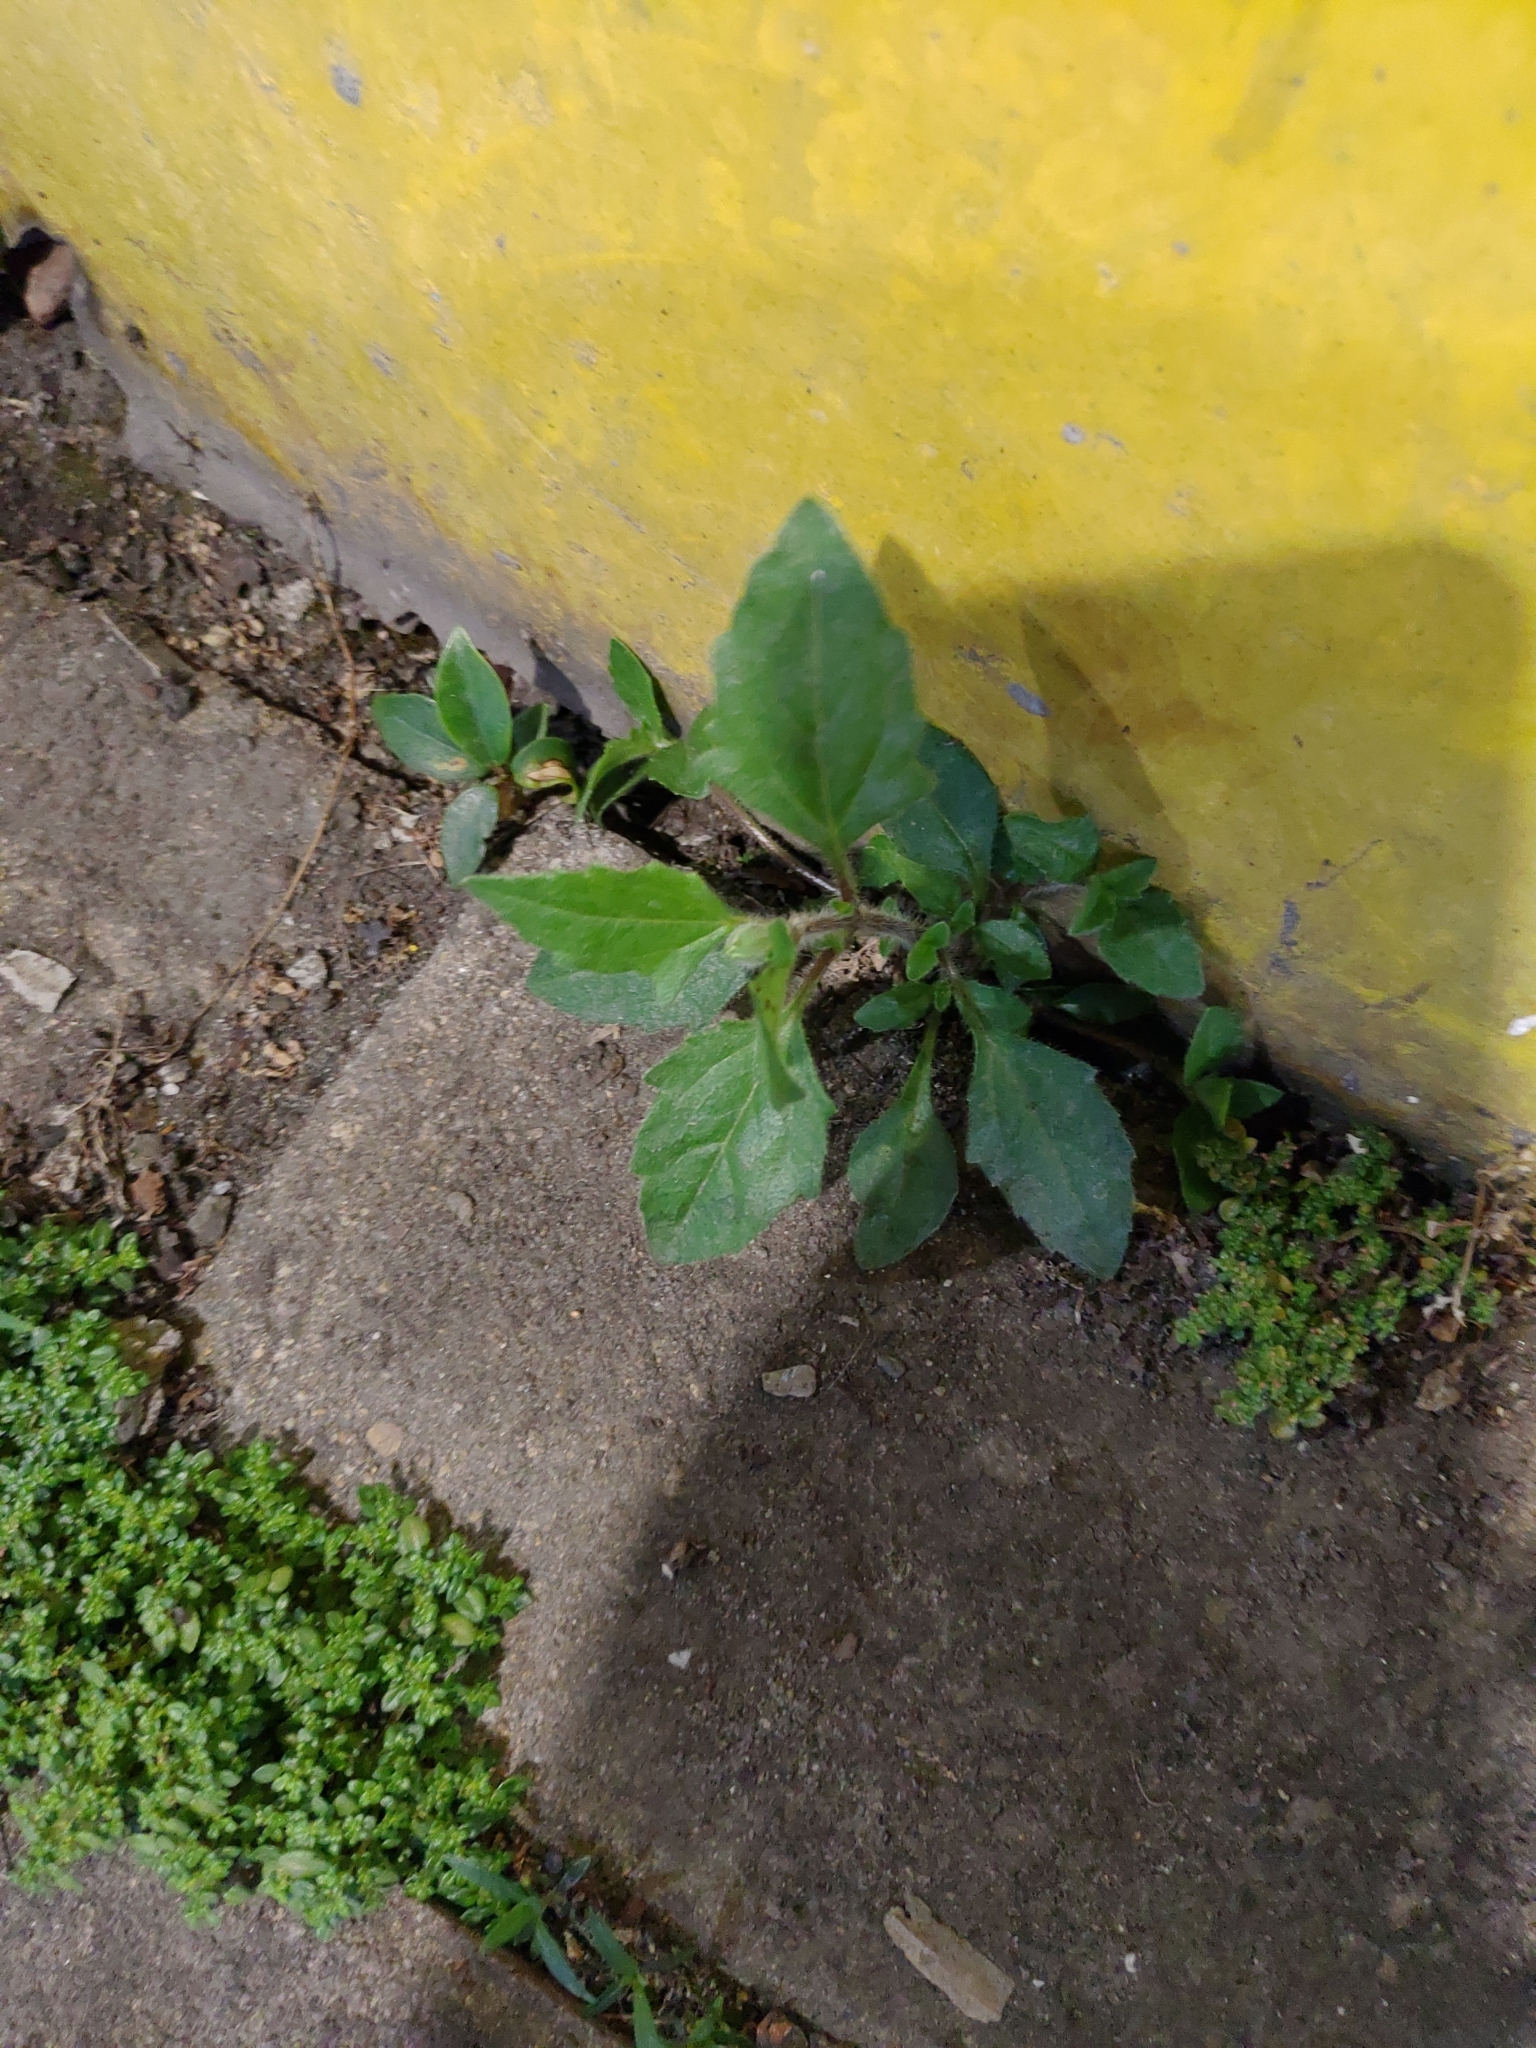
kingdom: Plantae
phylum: Tracheophyta
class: Magnoliopsida
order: Asterales
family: Asteraceae
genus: Tridax
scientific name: Tridax procumbens
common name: Coatbuttons
